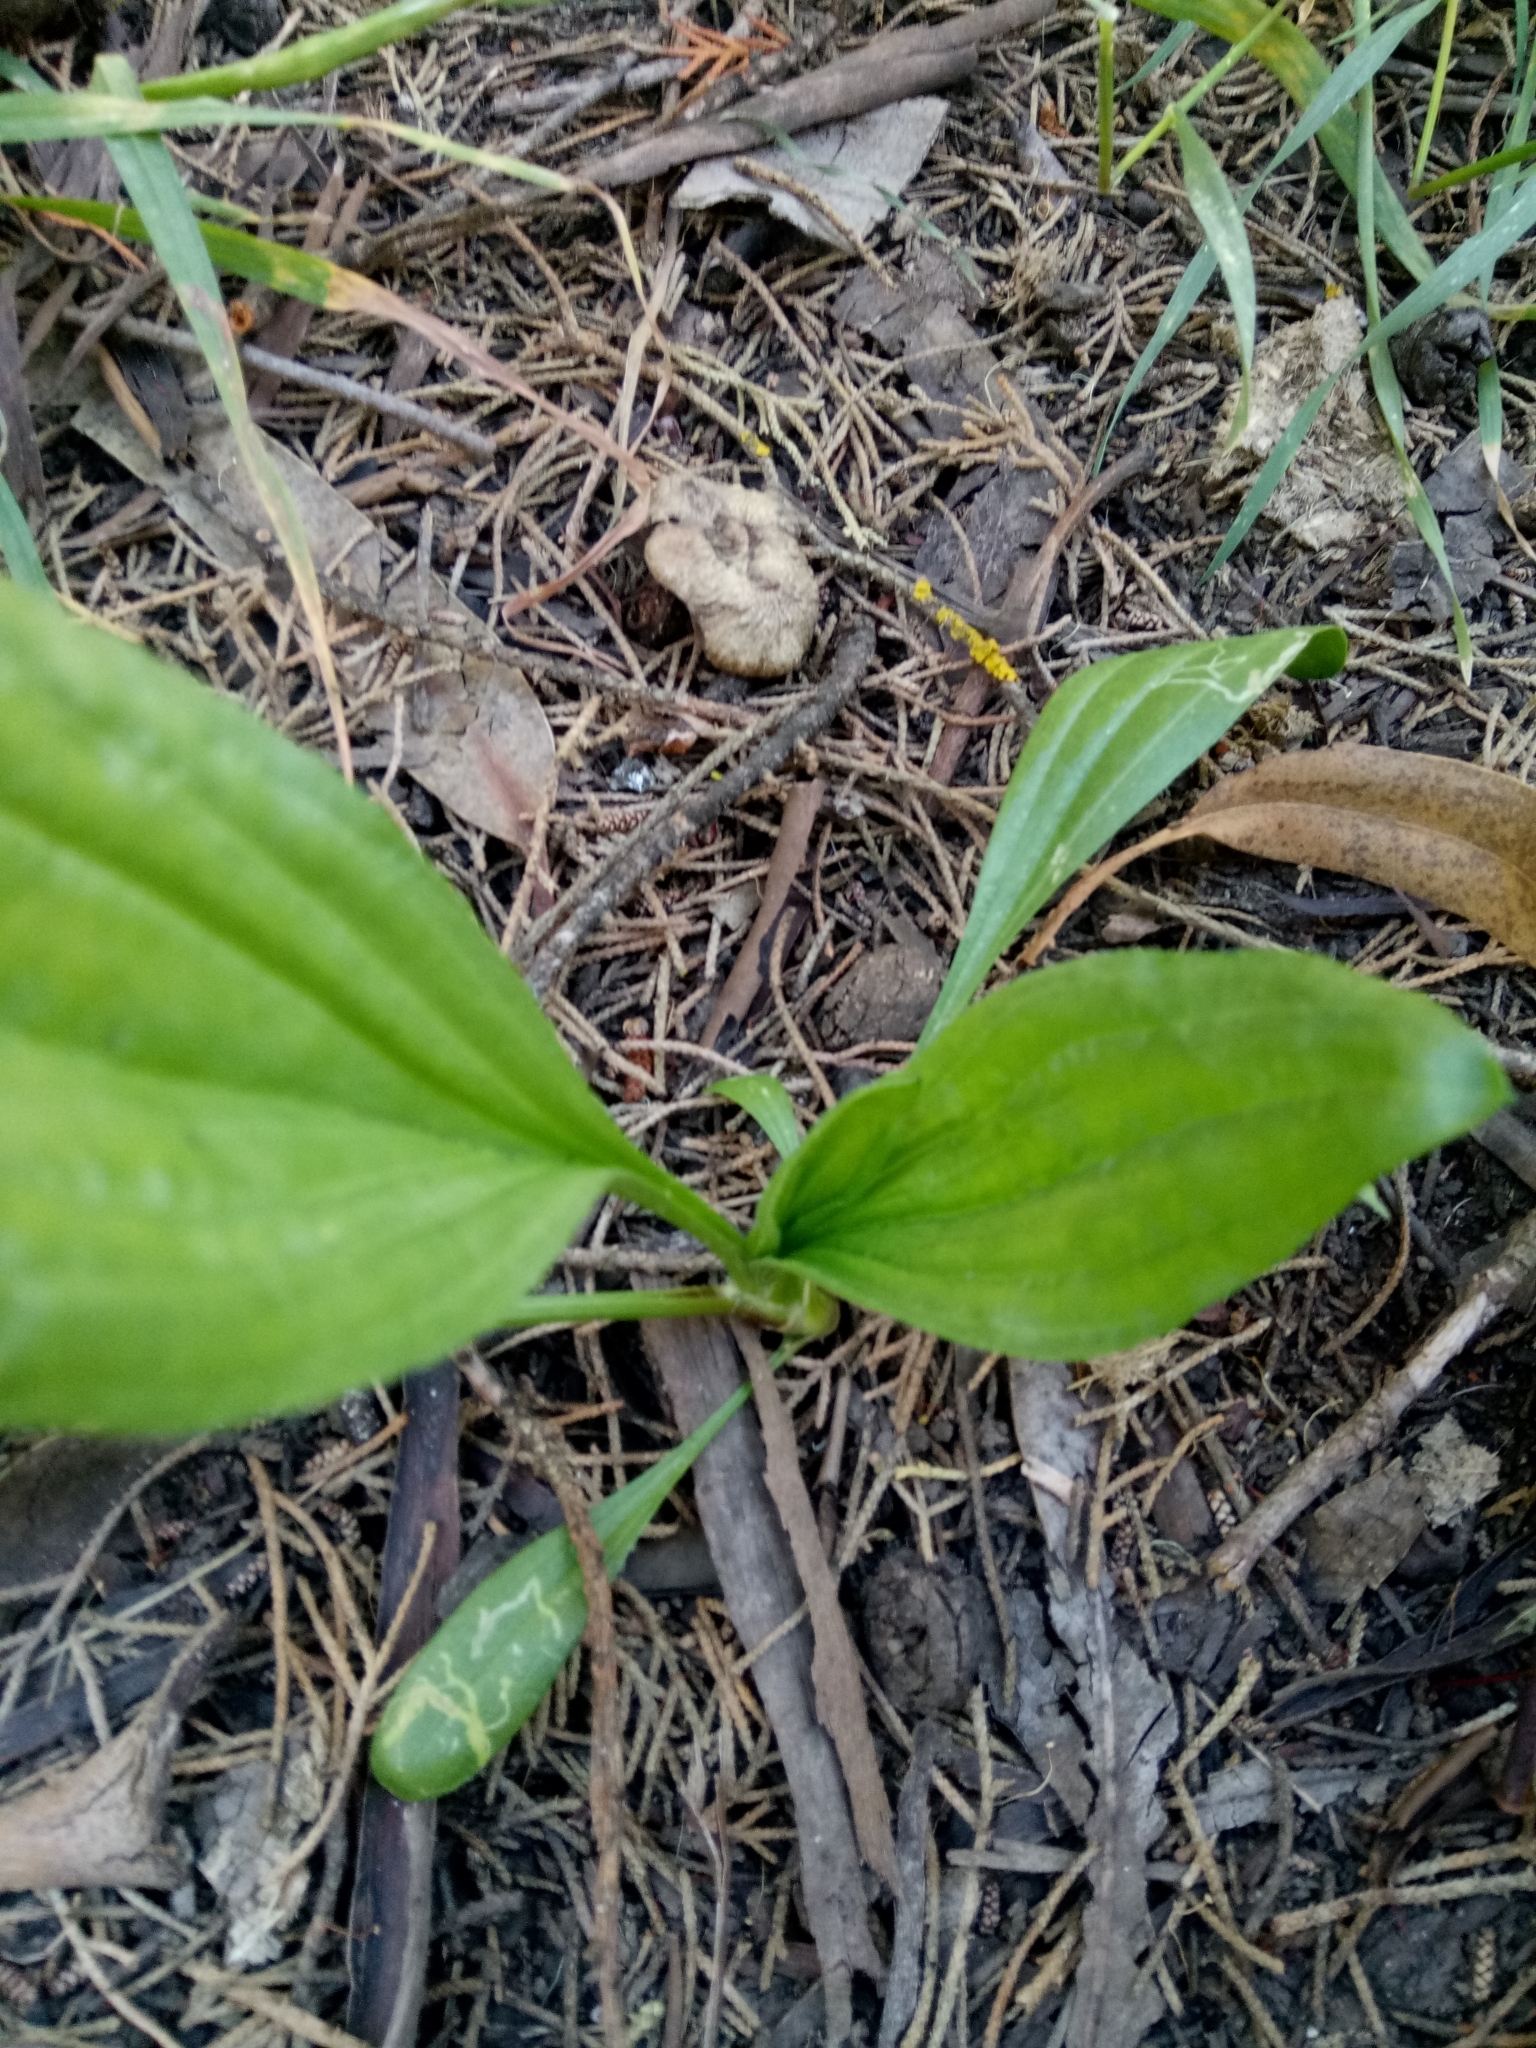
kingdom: Plantae
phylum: Tracheophyta
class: Magnoliopsida
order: Lamiales
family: Plantaginaceae
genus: Plantago
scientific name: Plantago lanceolata
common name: Ribwort plantain
